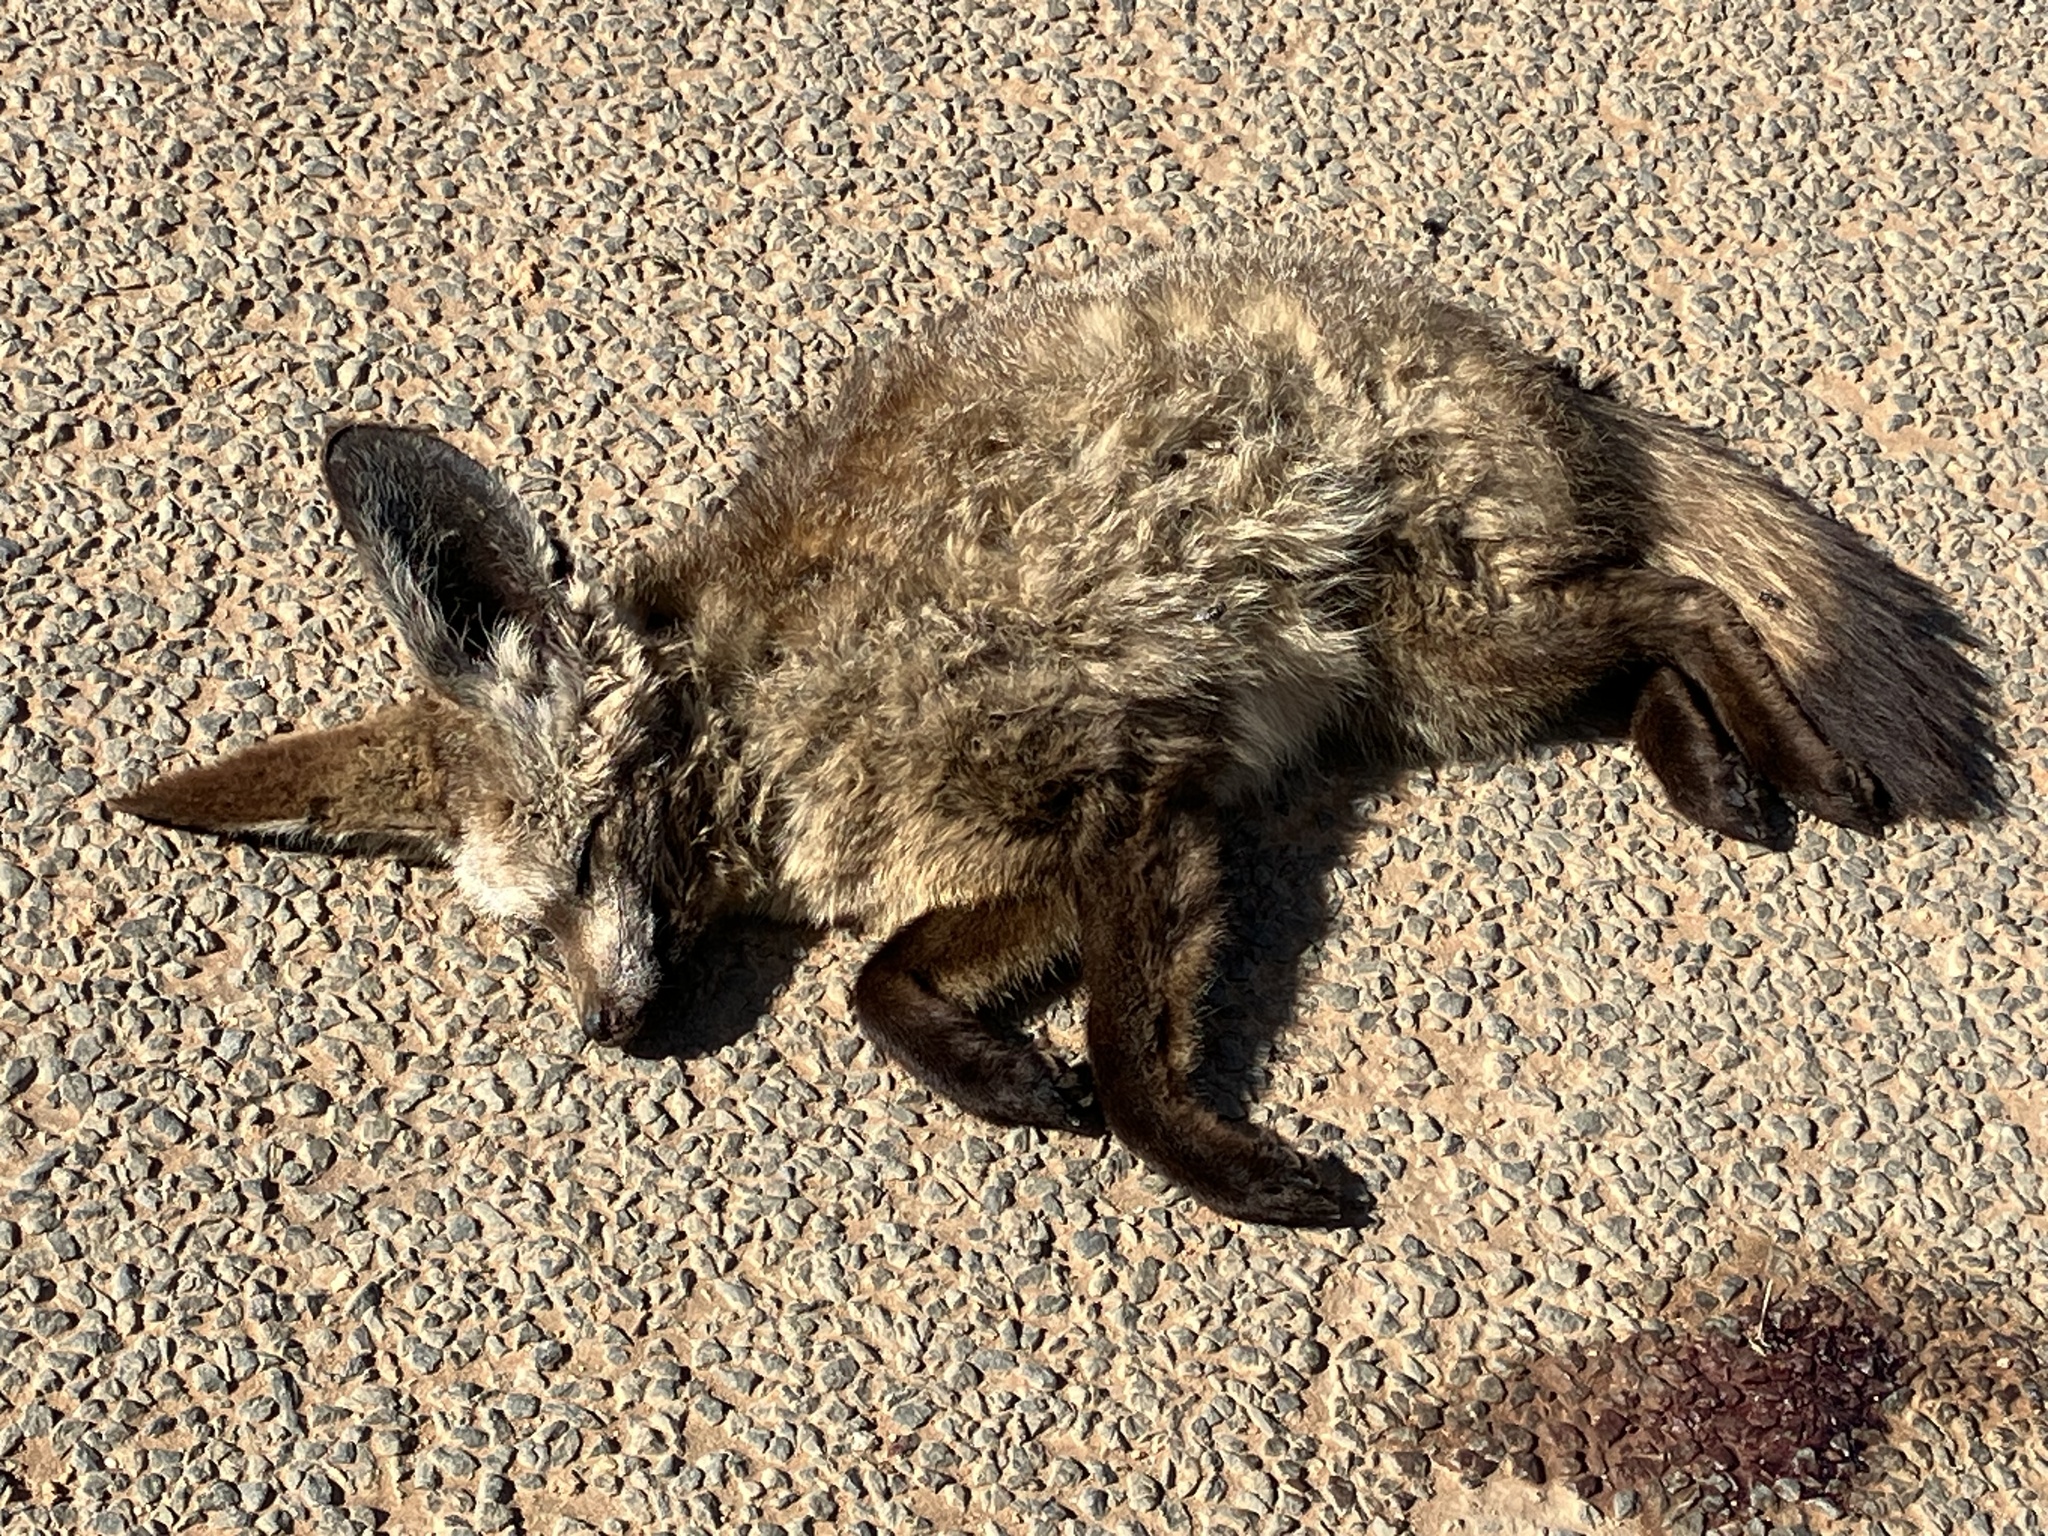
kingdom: Animalia
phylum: Chordata
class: Mammalia
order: Carnivora
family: Canidae
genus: Otocyon
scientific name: Otocyon megalotis
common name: Bat-eared fox
